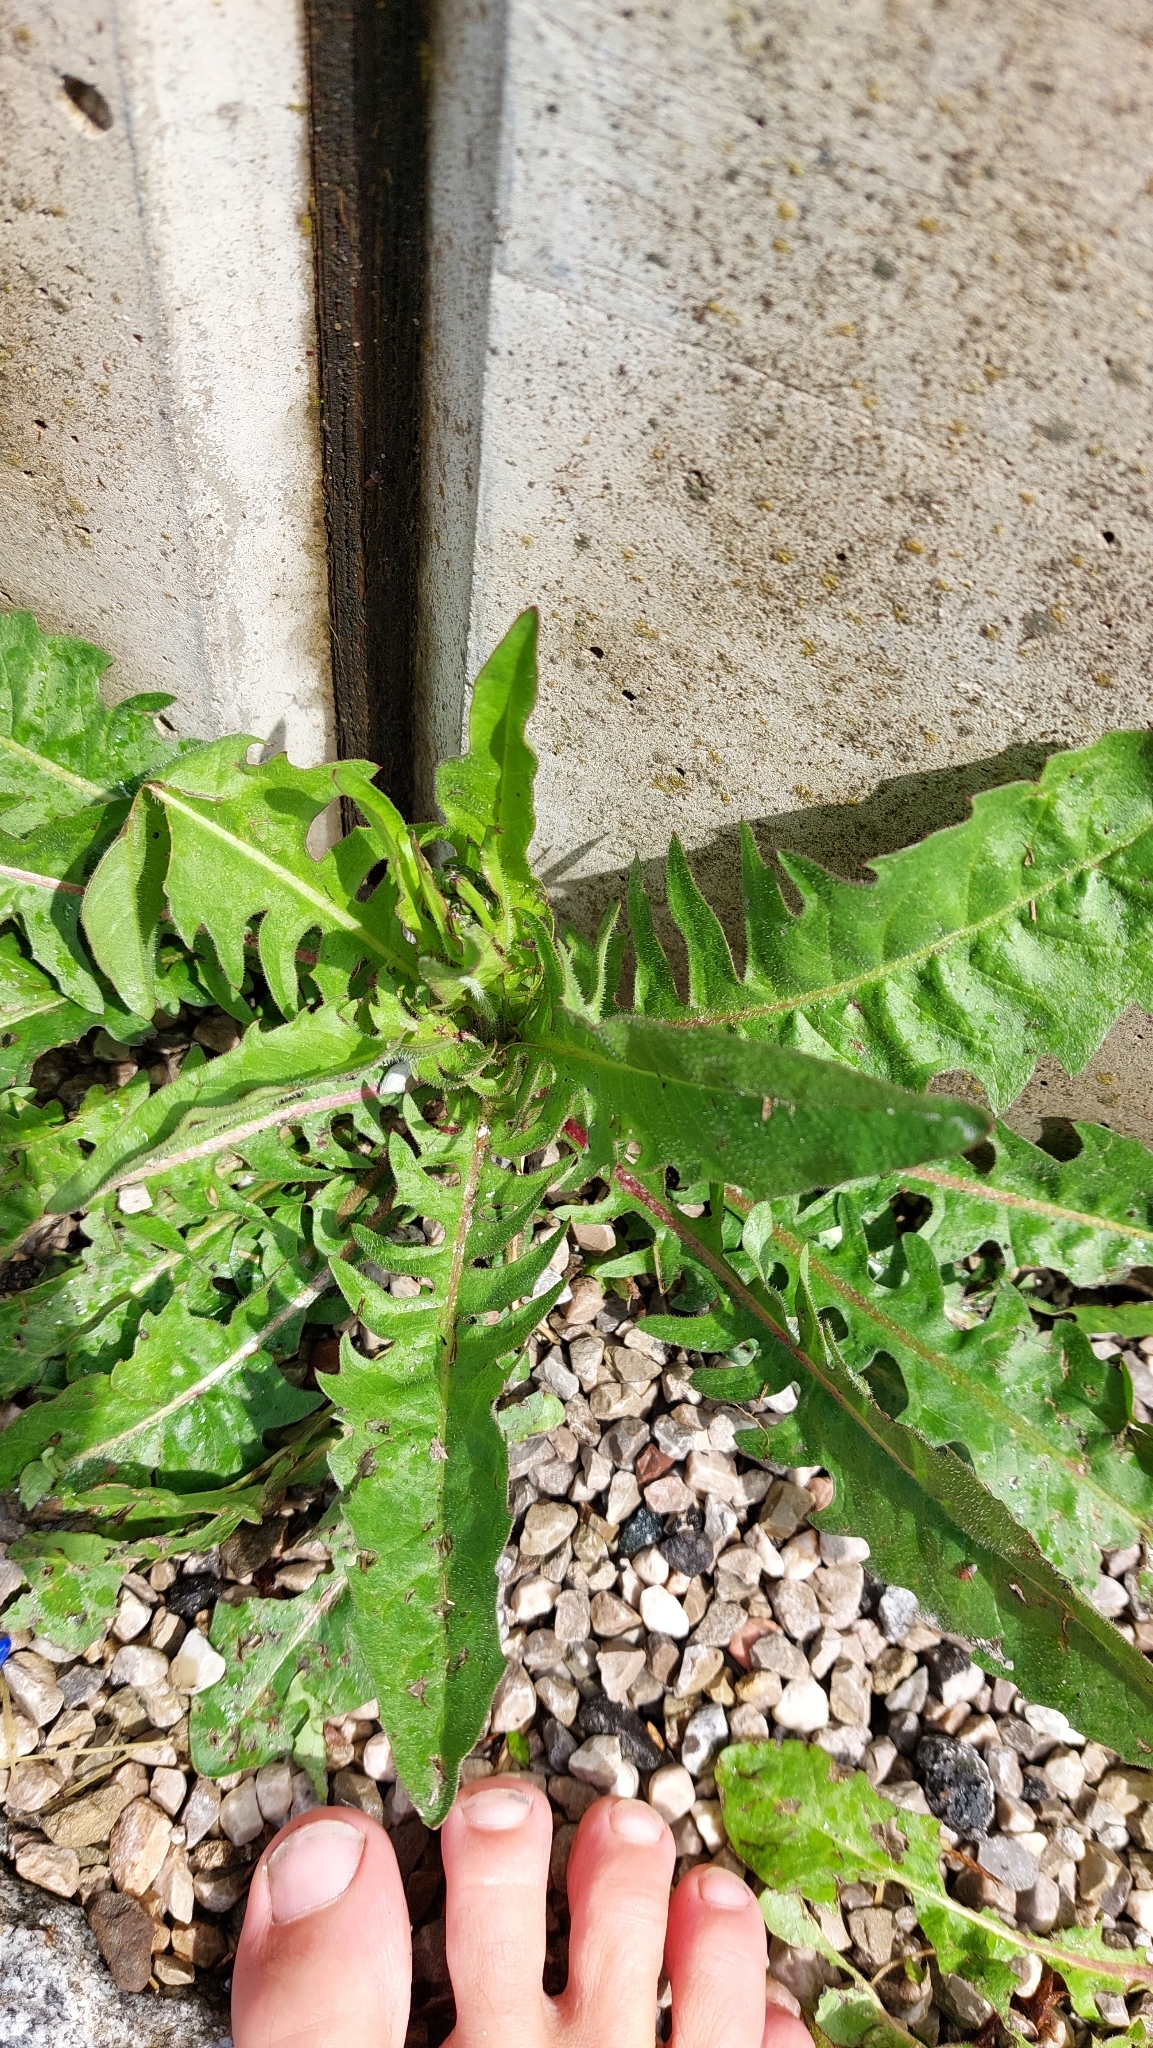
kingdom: Plantae
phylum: Tracheophyta
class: Magnoliopsida
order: Asterales
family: Asteraceae
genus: Taraxacum
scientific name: Taraxacum
